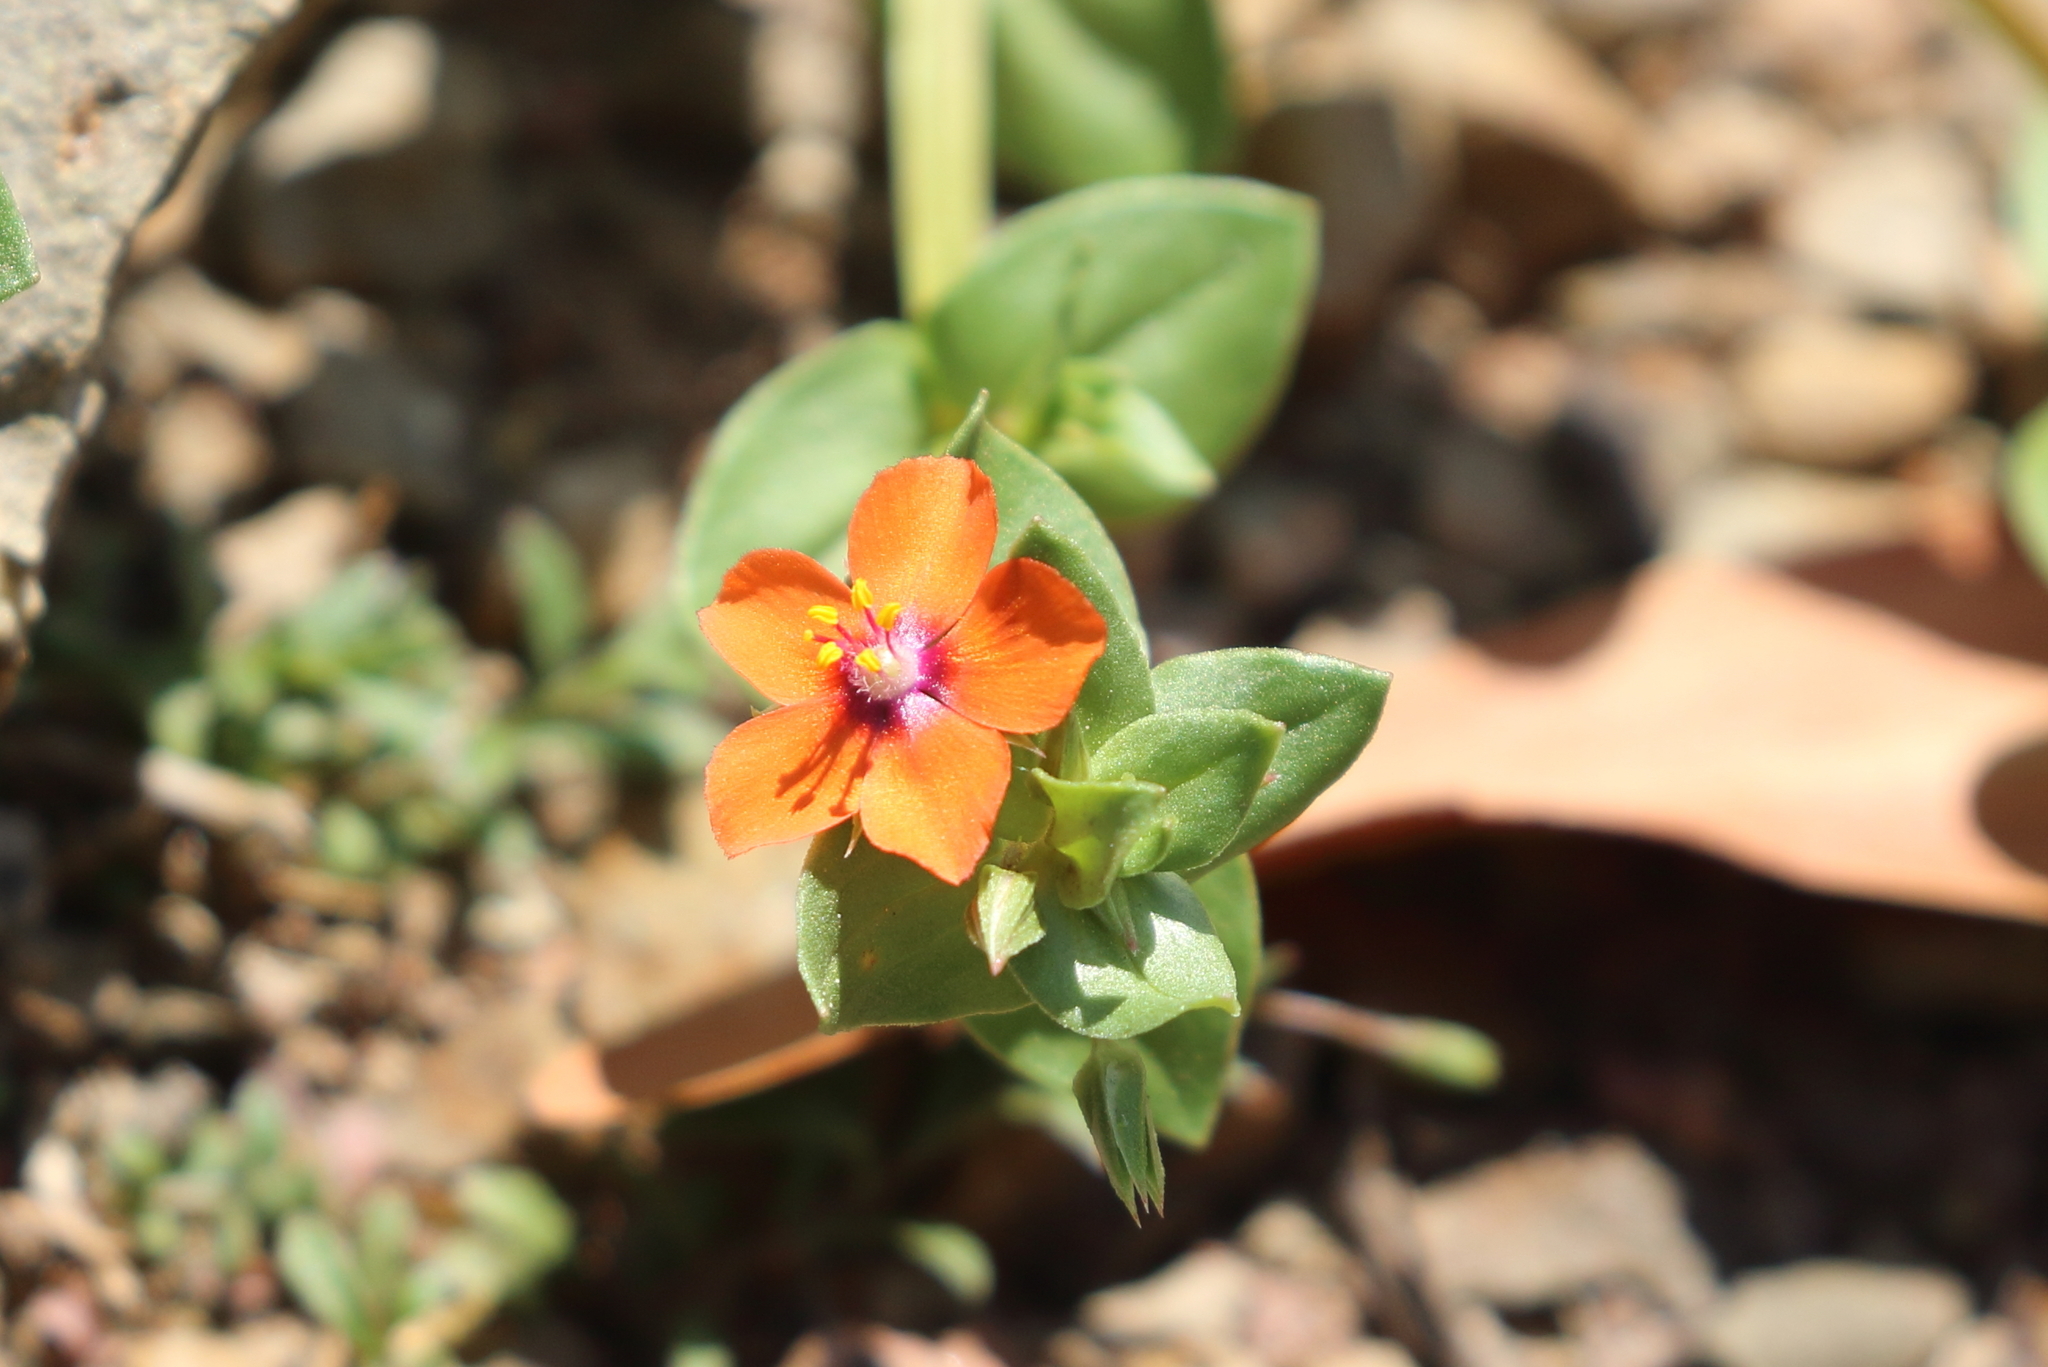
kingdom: Plantae
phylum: Tracheophyta
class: Magnoliopsida
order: Ericales
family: Primulaceae
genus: Lysimachia
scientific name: Lysimachia arvensis
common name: Scarlet pimpernel
